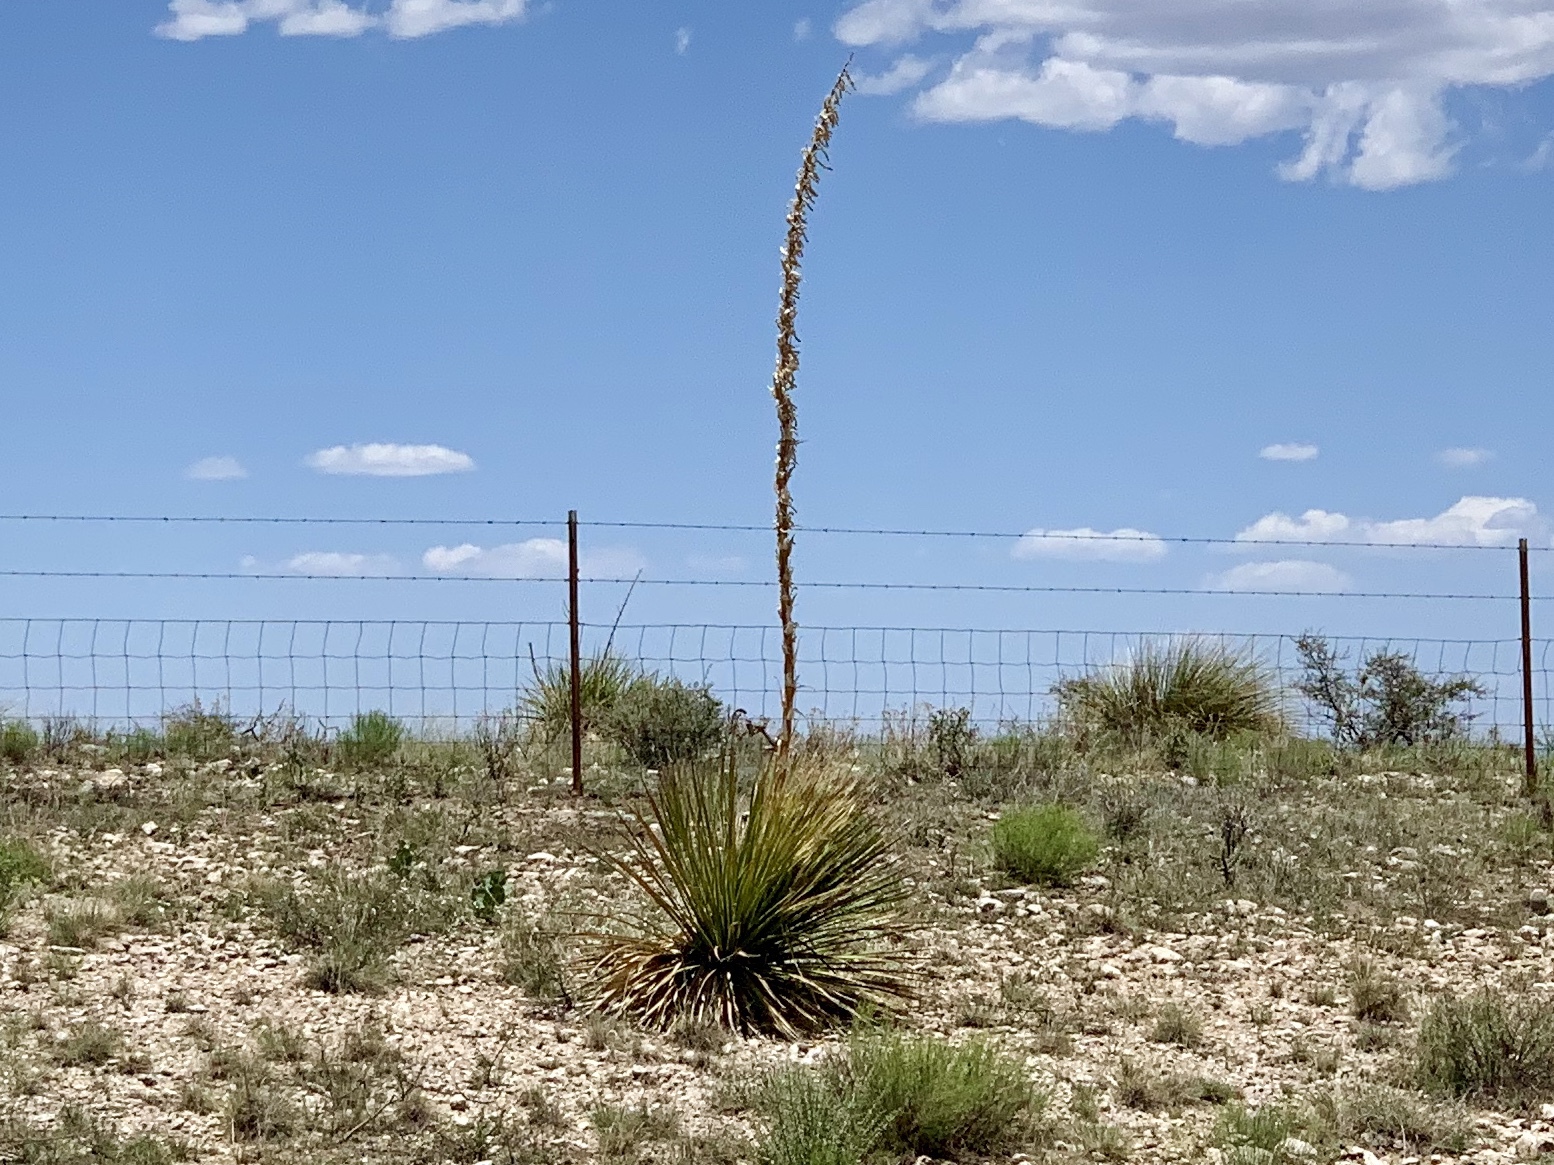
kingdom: Plantae
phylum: Tracheophyta
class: Liliopsida
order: Asparagales
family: Asparagaceae
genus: Dasylirion
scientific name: Dasylirion wheeleri
